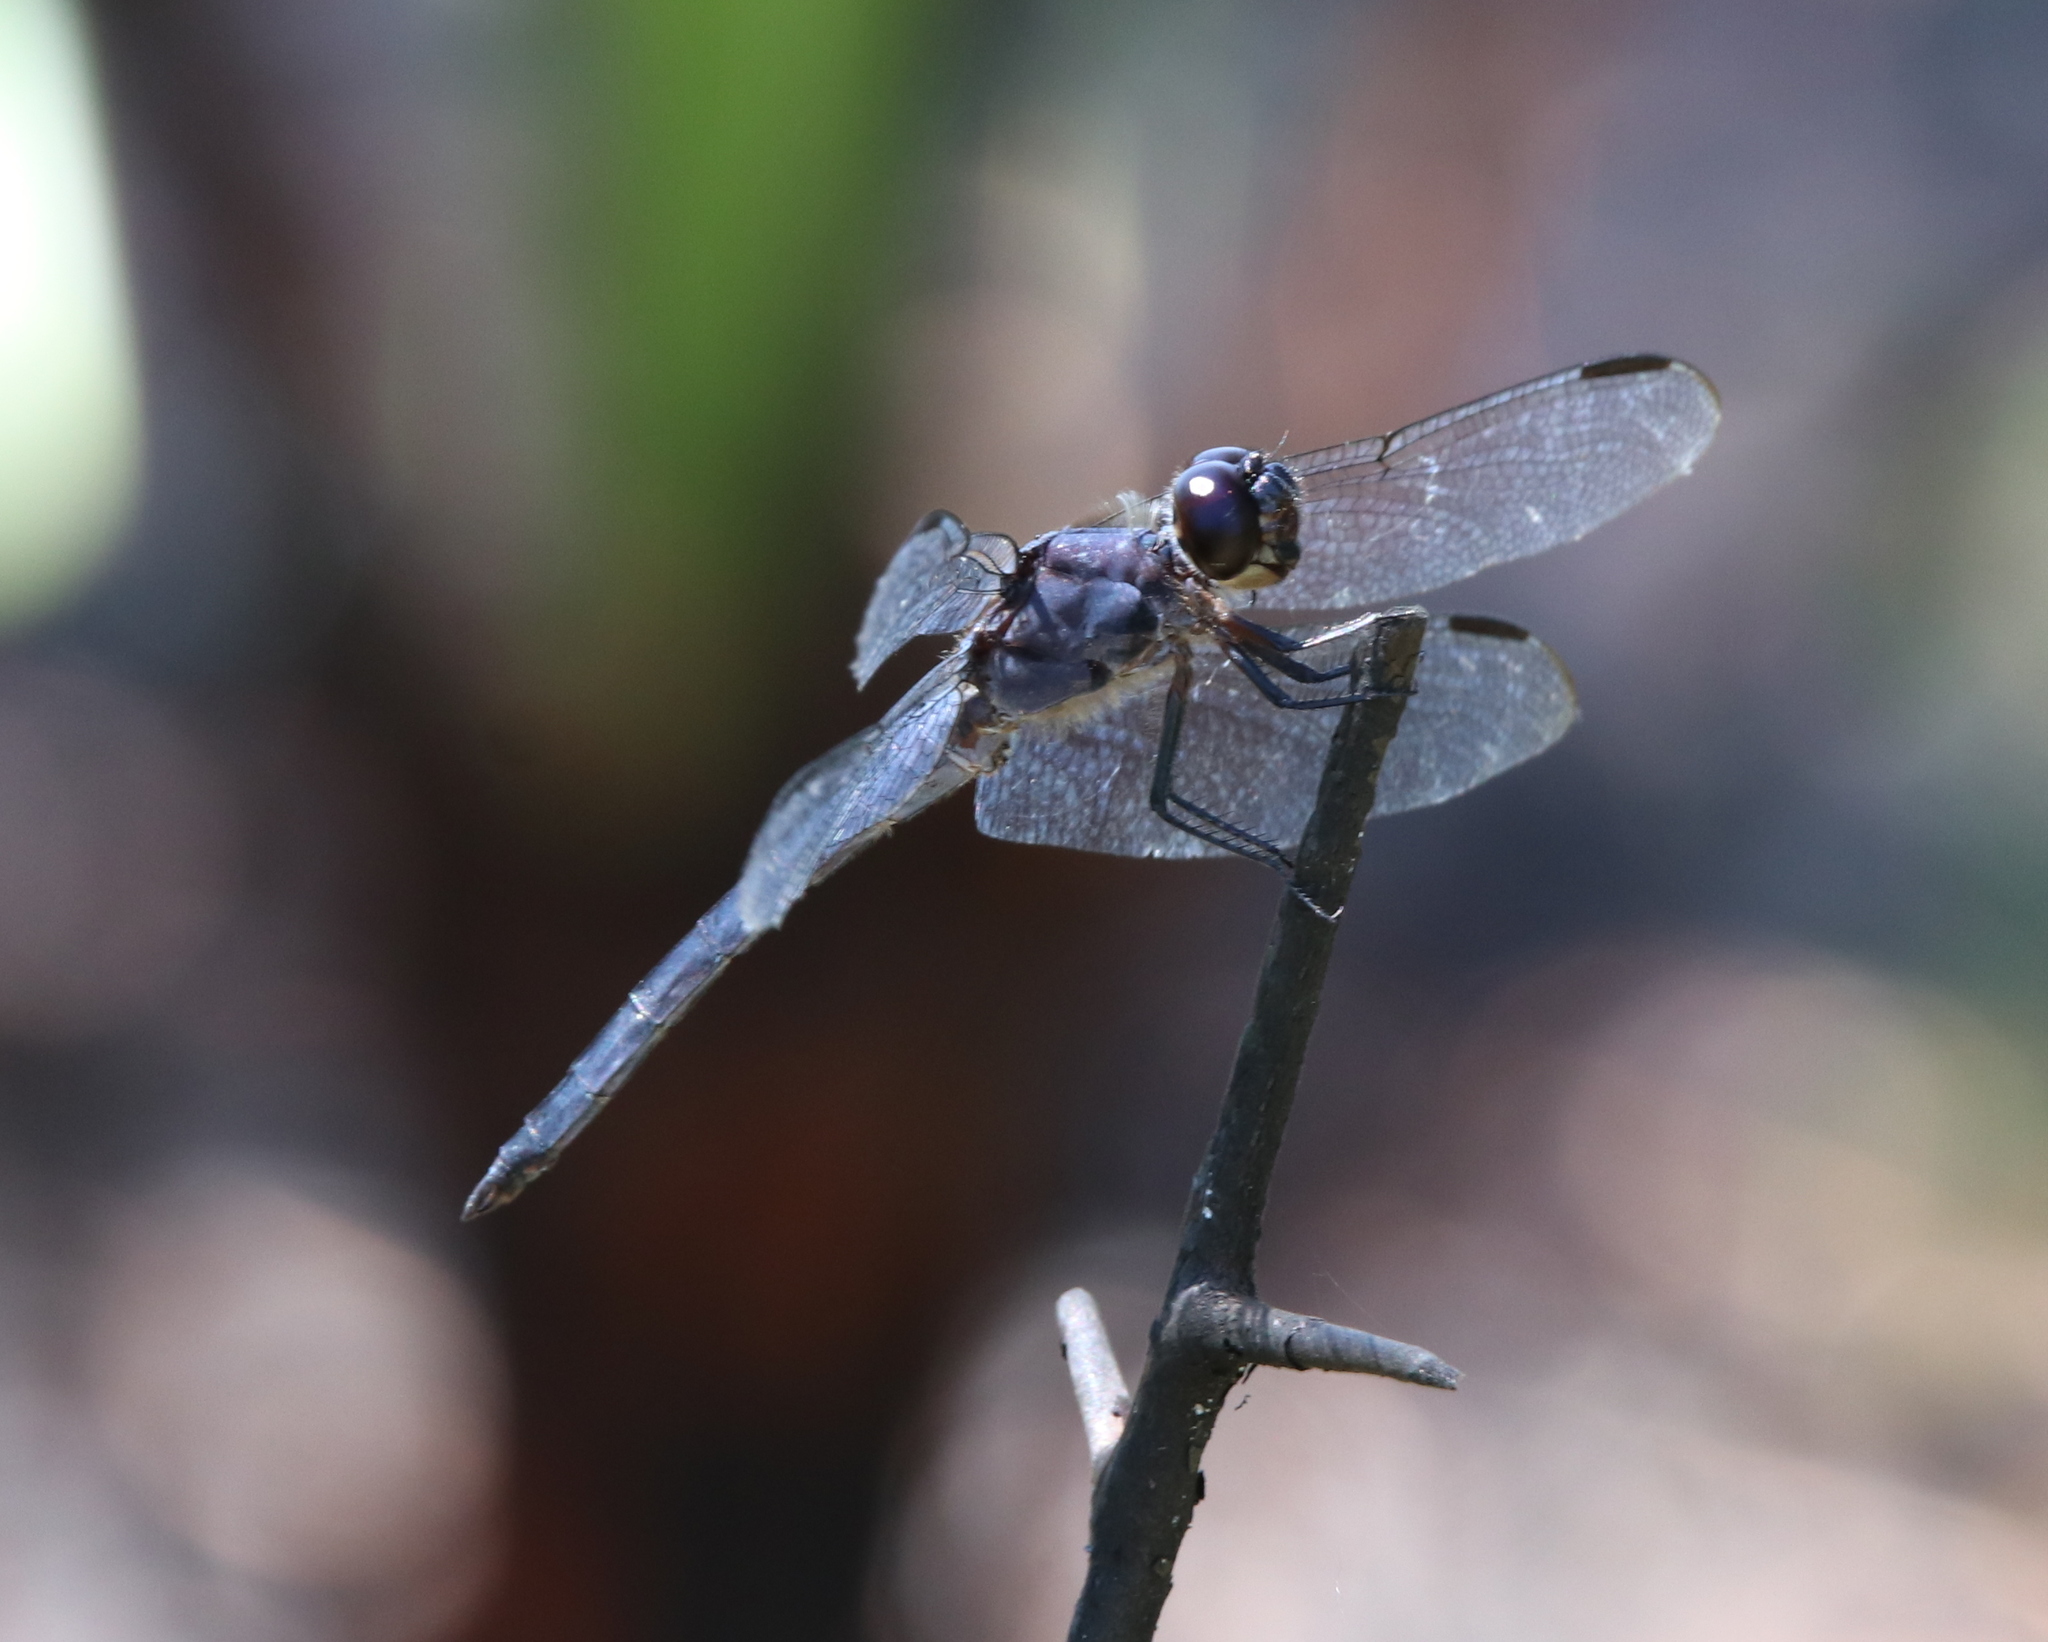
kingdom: Animalia
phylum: Arthropoda
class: Insecta
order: Odonata
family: Libellulidae
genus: Libellula
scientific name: Libellula incesta
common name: Slaty skimmer
